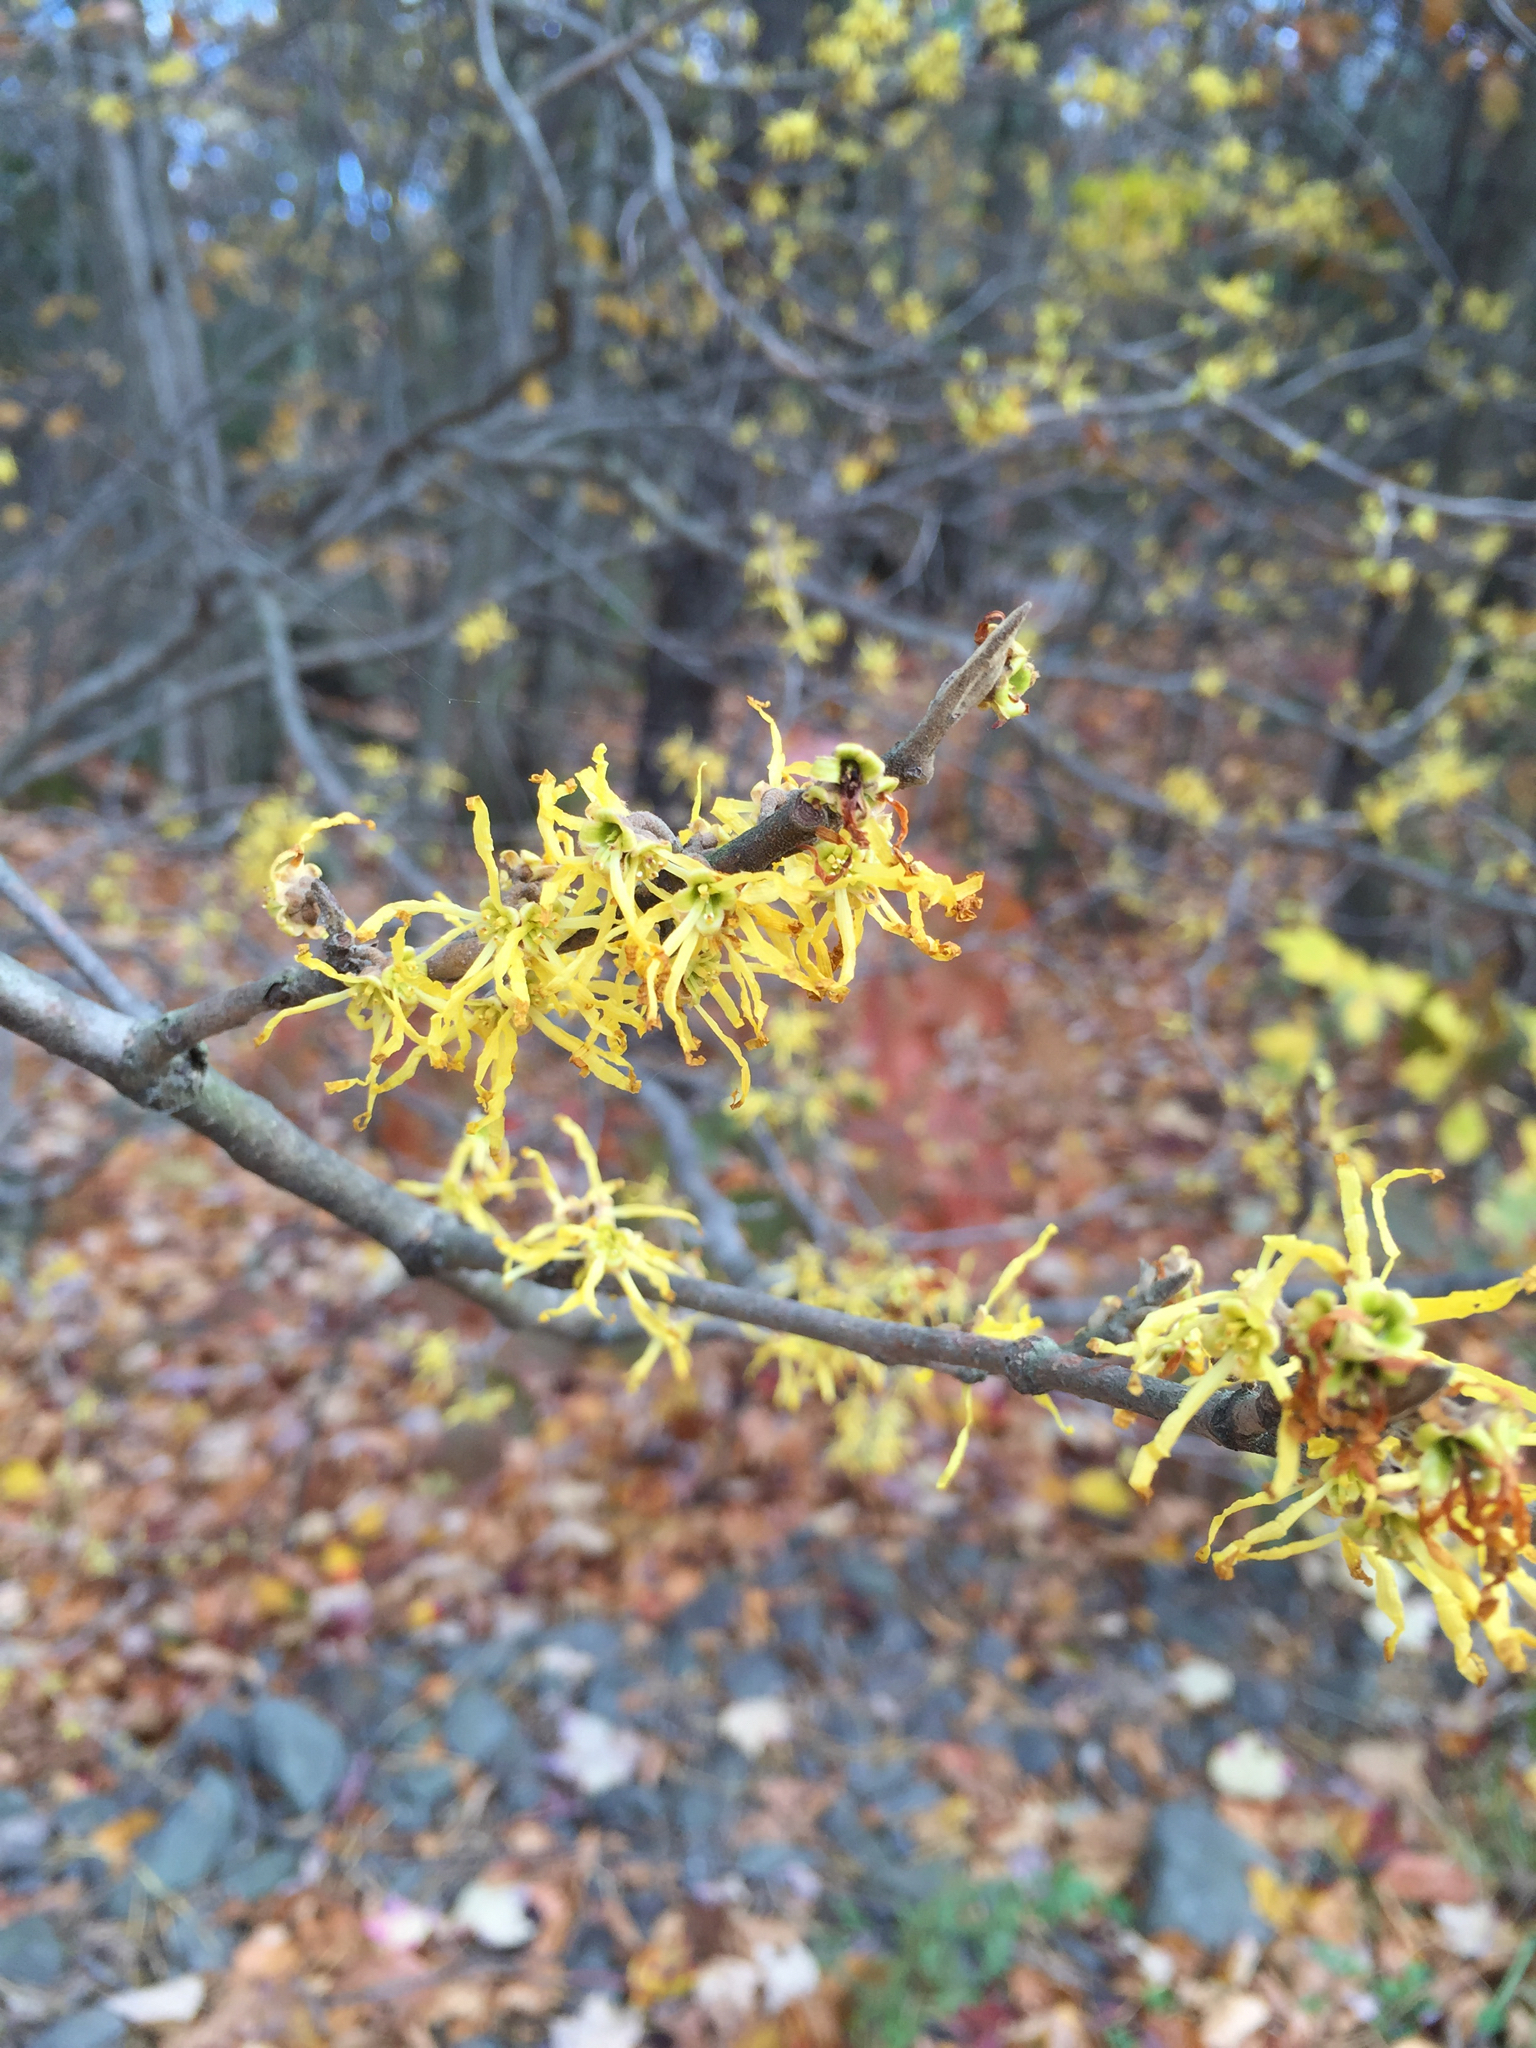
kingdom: Plantae
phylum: Tracheophyta
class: Magnoliopsida
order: Saxifragales
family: Hamamelidaceae
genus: Hamamelis
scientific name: Hamamelis virginiana
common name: Witch-hazel
